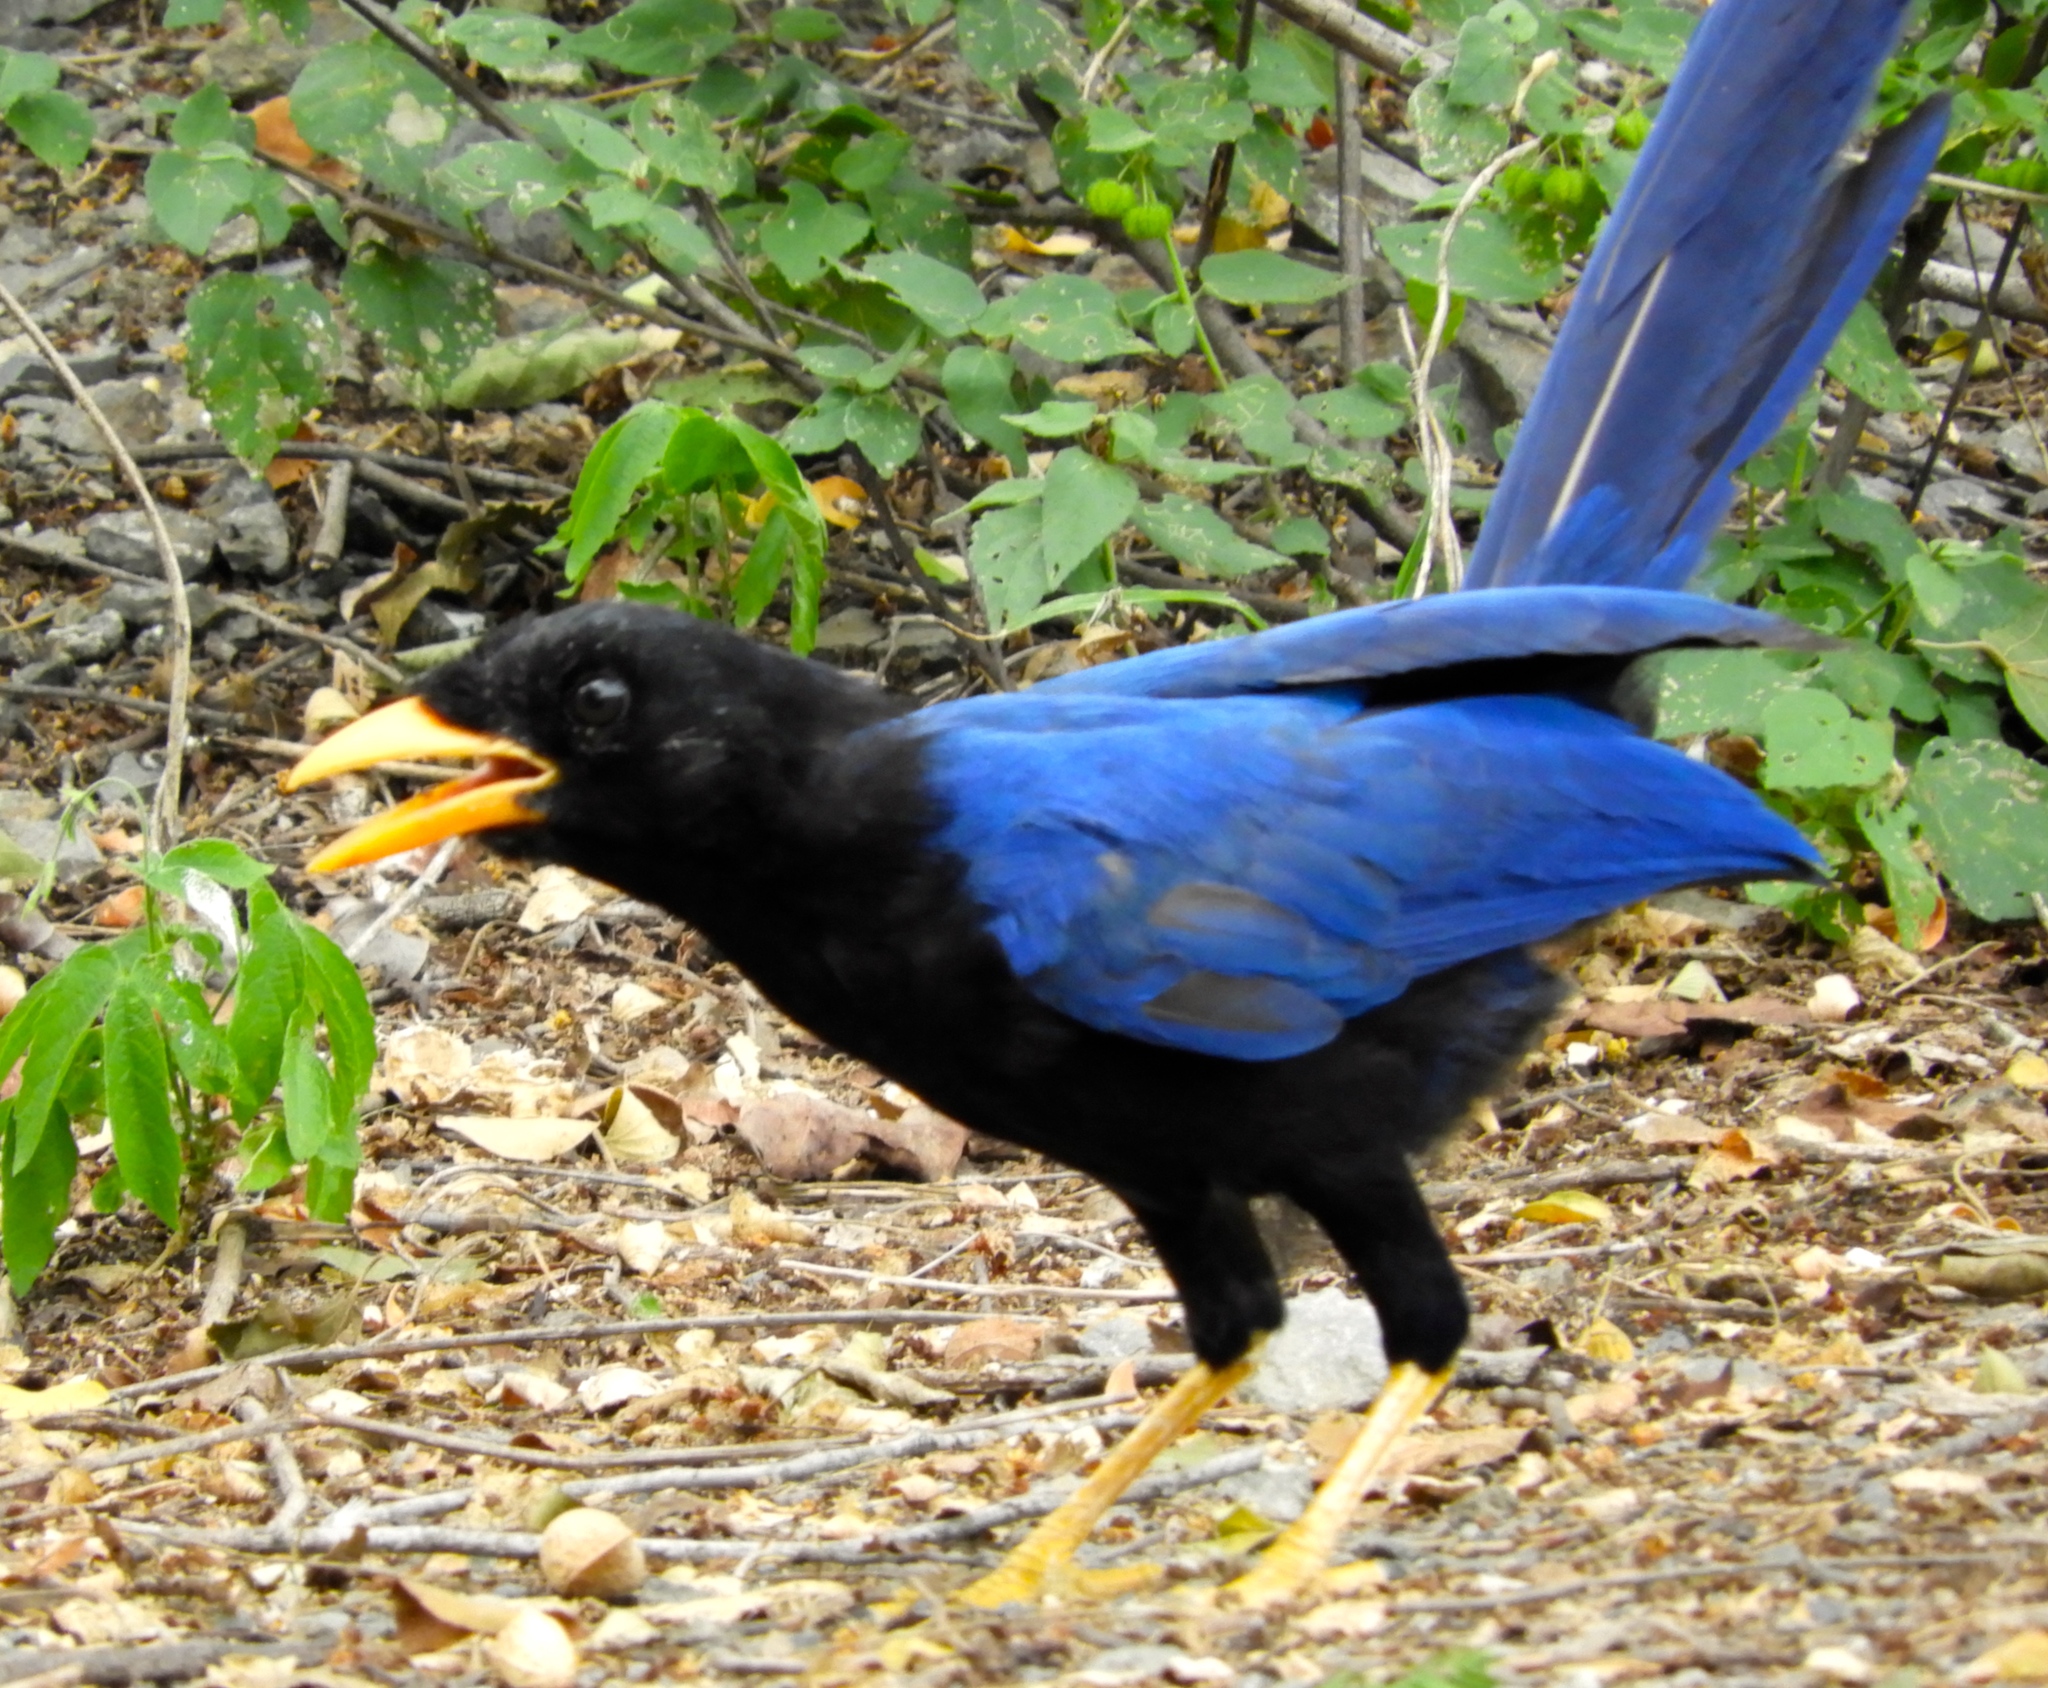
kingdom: Animalia
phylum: Chordata
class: Aves
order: Passeriformes
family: Corvidae
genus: Cyanocorax
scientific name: Cyanocorax beecheii
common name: Purplish-backed jay
